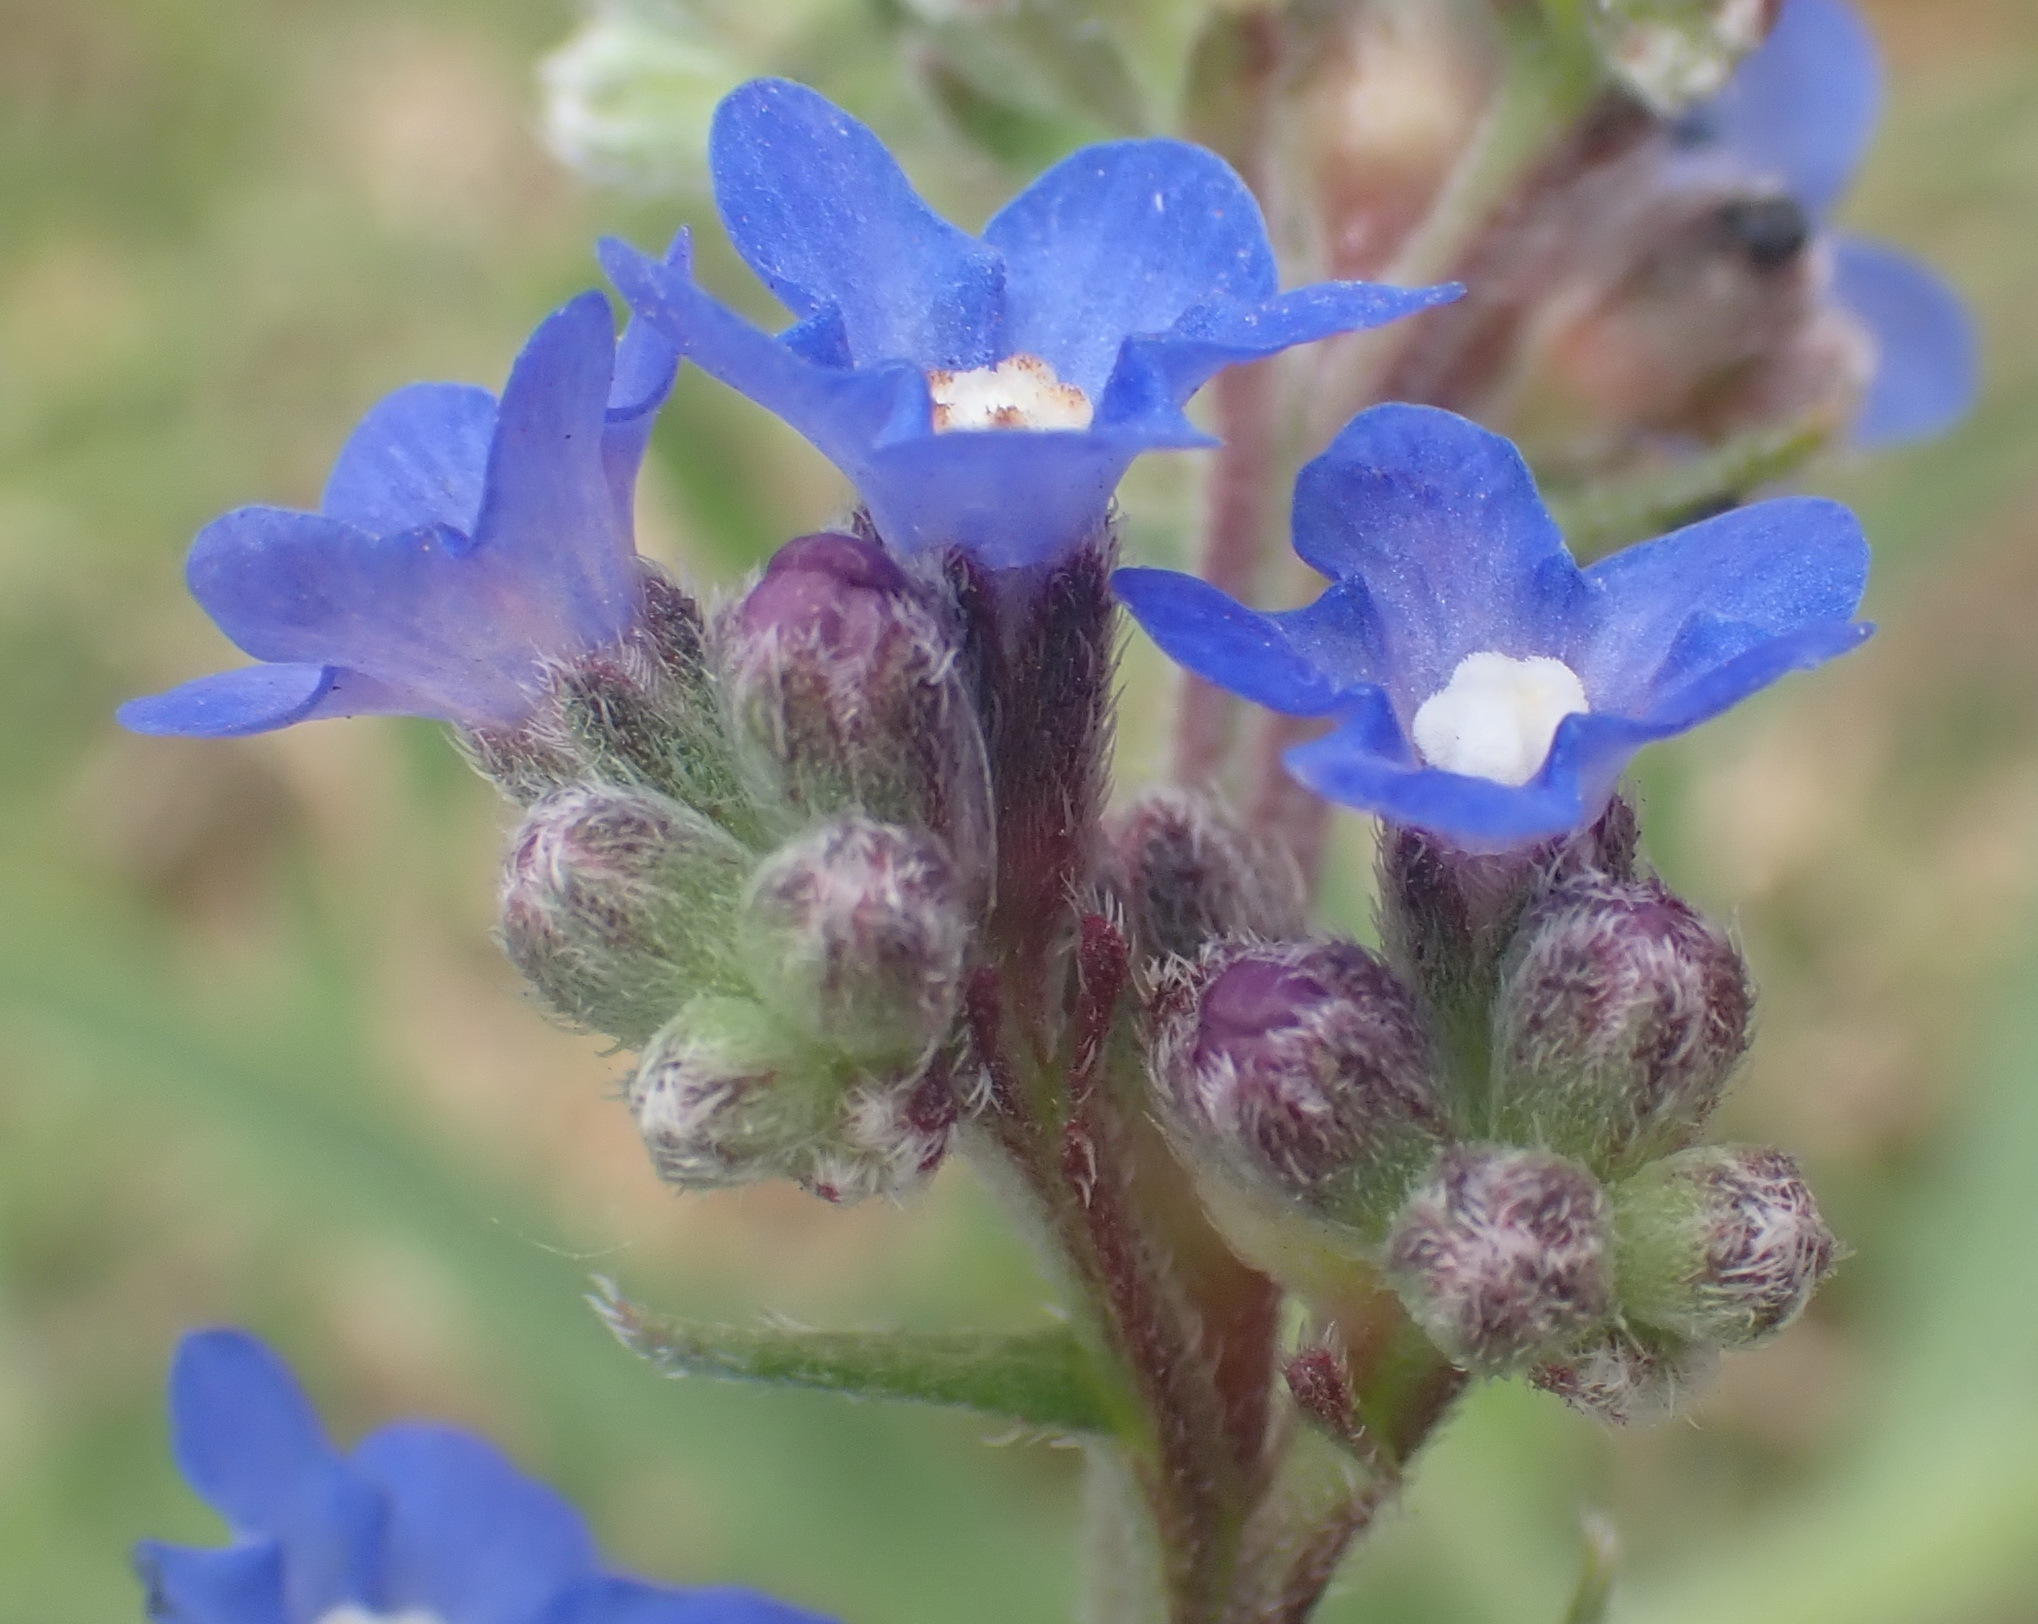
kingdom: Plantae
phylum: Tracheophyta
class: Magnoliopsida
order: Boraginales
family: Boraginaceae
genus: Anchusa
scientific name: Anchusa capensis
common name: Cape bugloss
